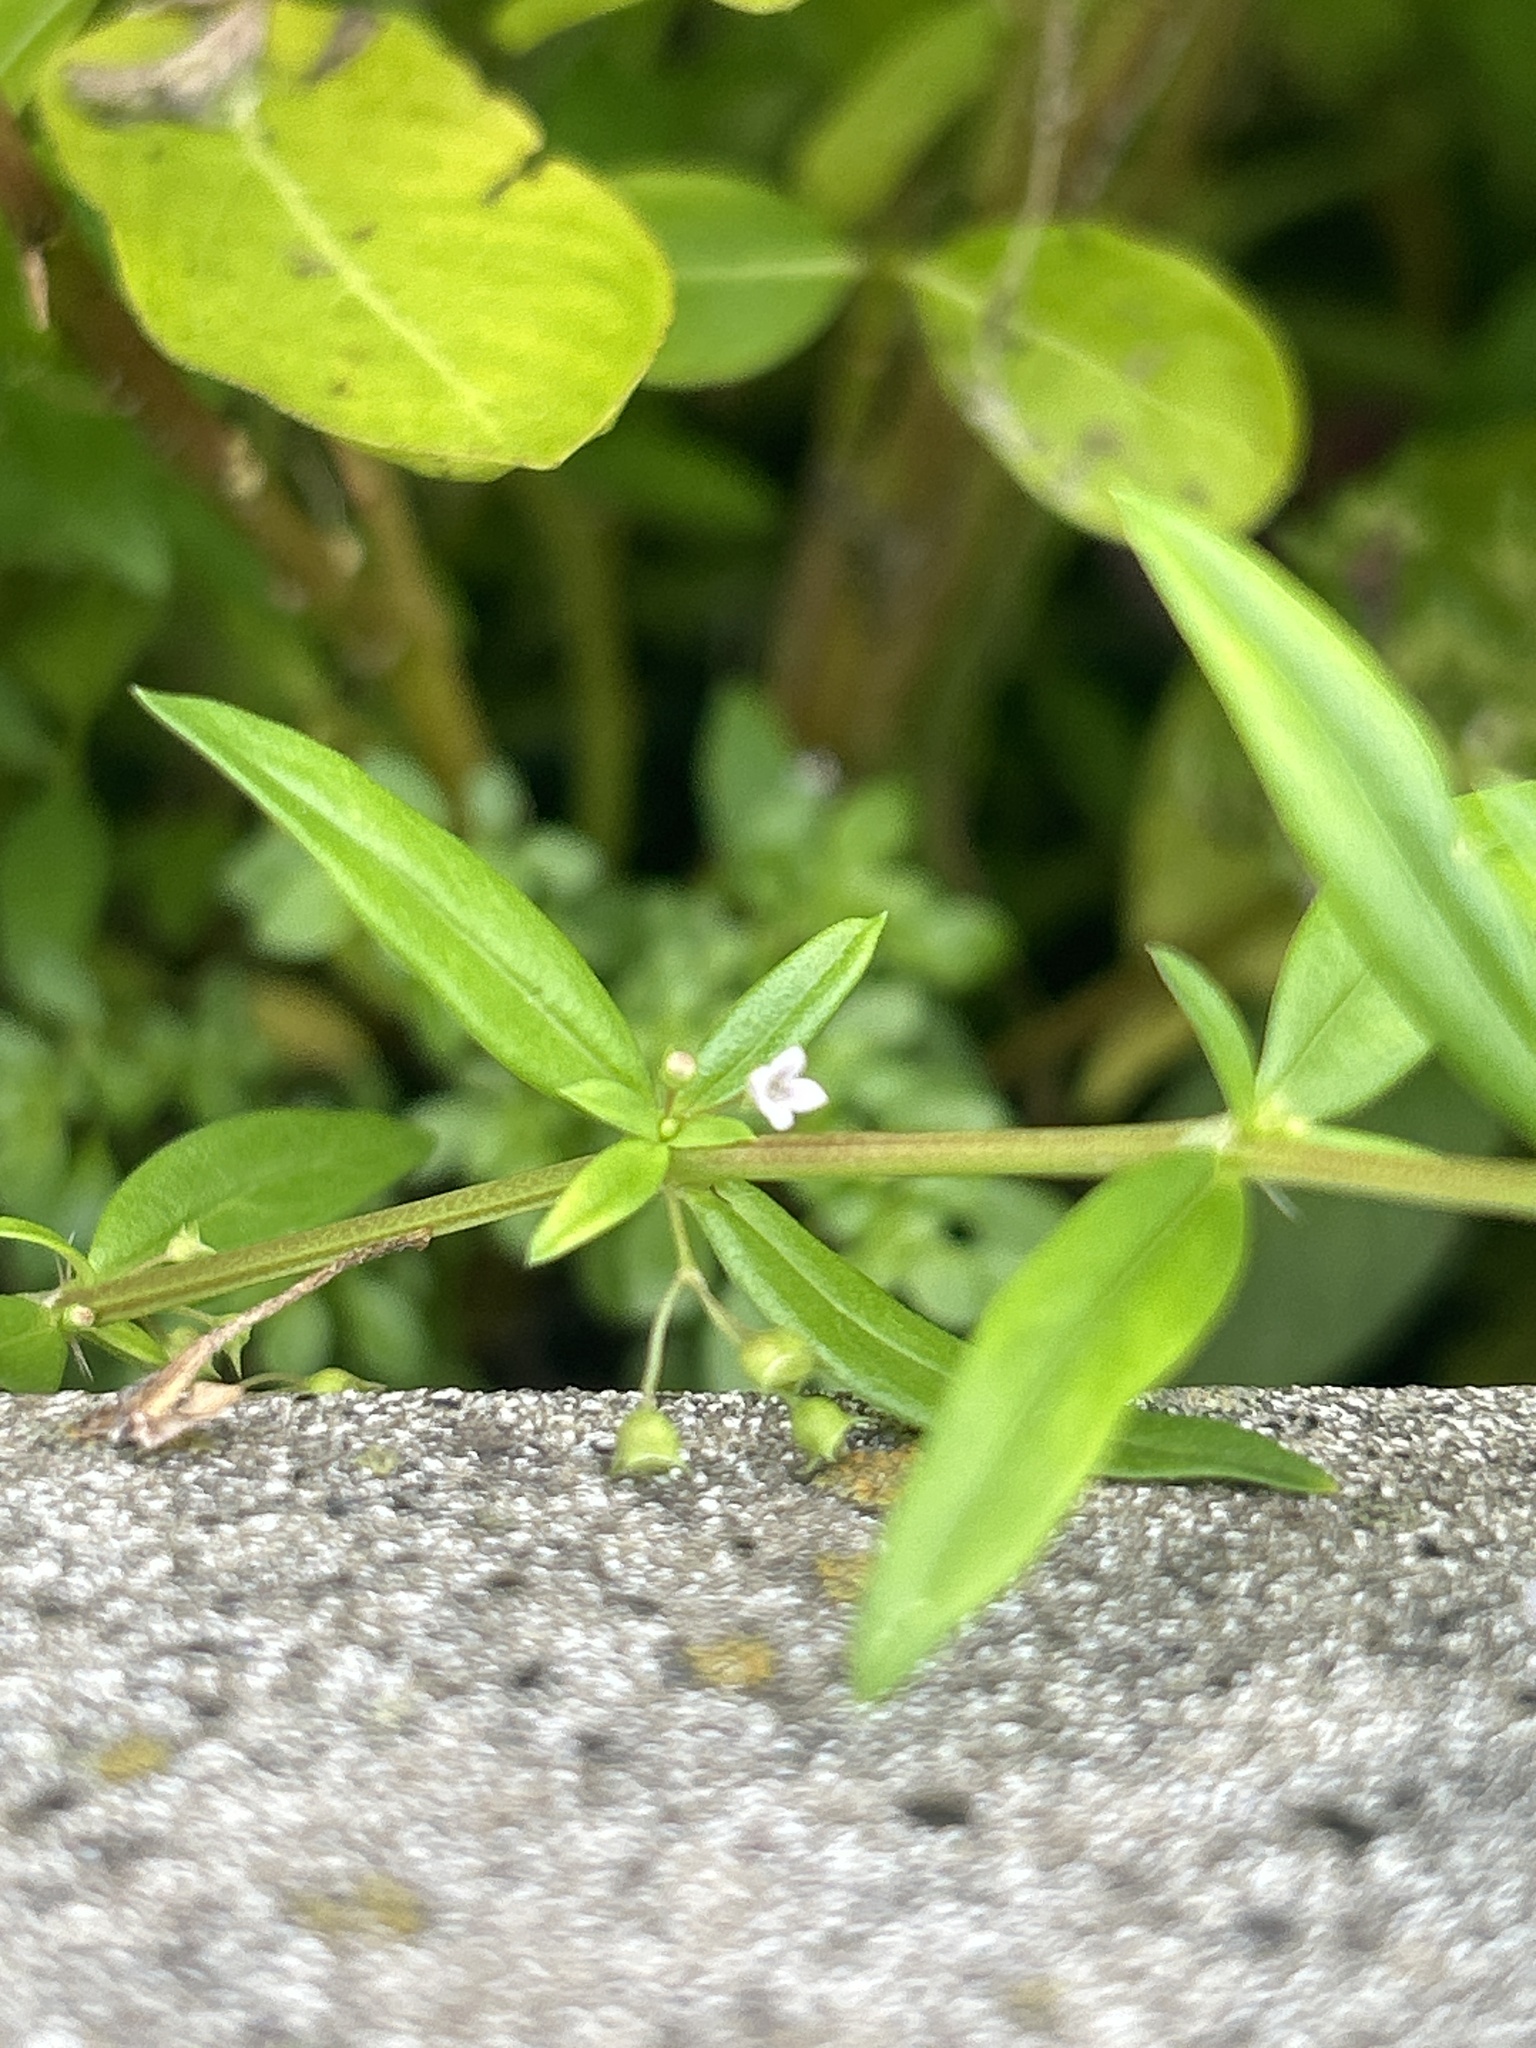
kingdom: Plantae
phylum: Tracheophyta
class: Magnoliopsida
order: Gentianales
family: Rubiaceae
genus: Oldenlandia
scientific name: Oldenlandia corymbosa
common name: Flat-top mille graines
